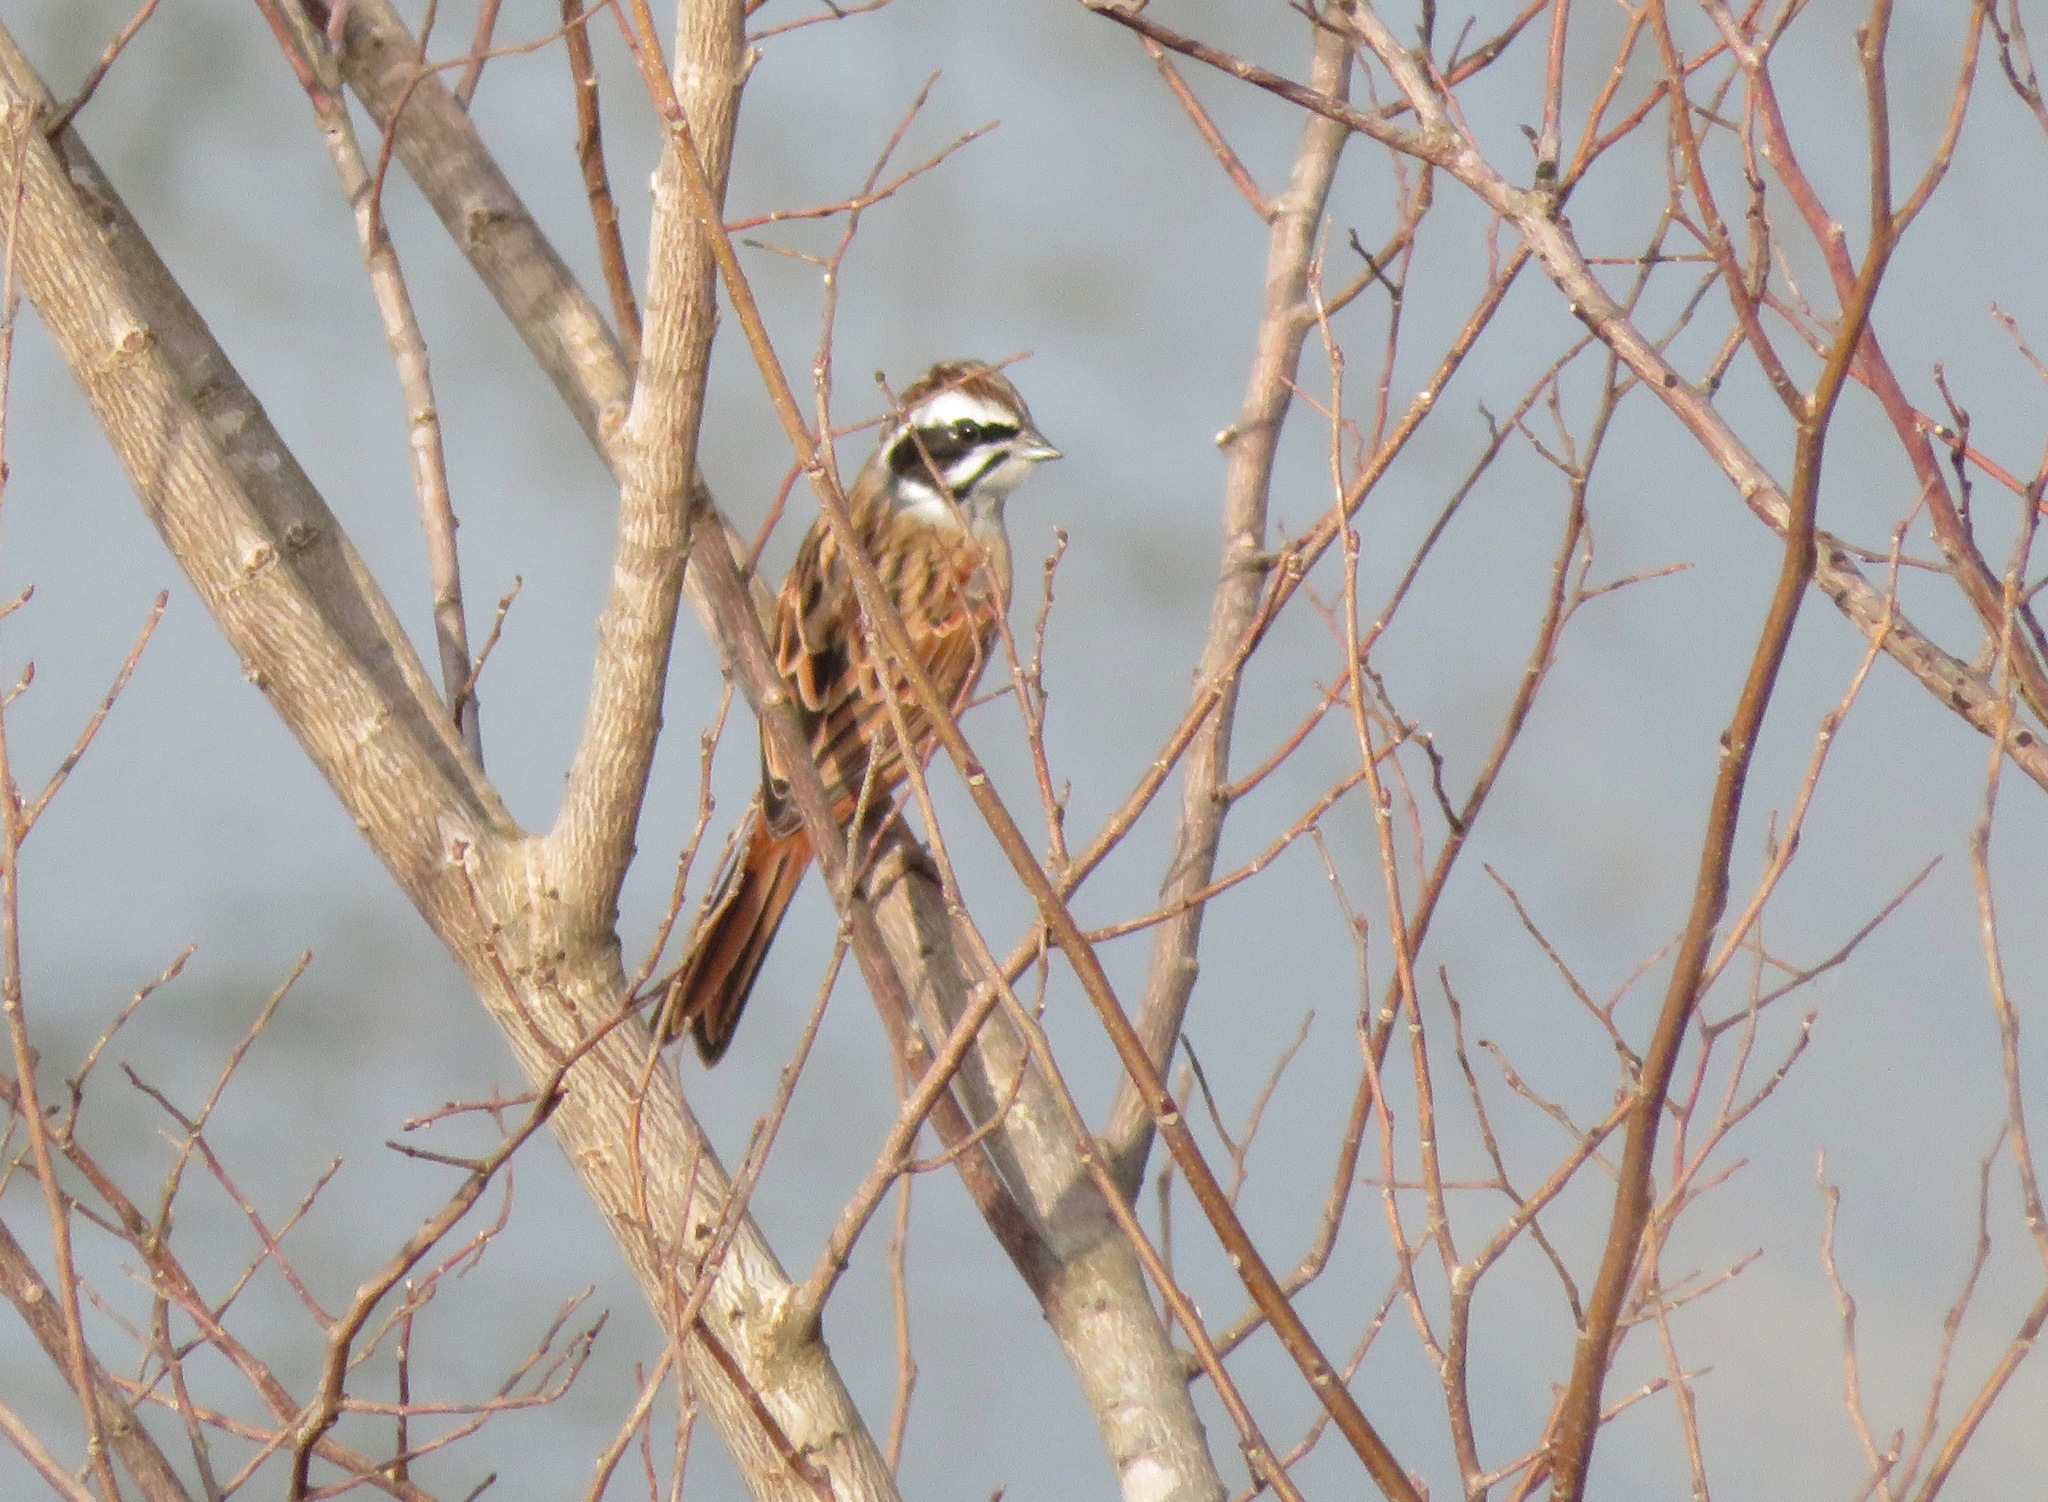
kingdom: Animalia
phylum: Chordata
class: Aves
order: Passeriformes
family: Emberizidae
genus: Emberiza
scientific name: Emberiza cioides
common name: Meadow bunting
